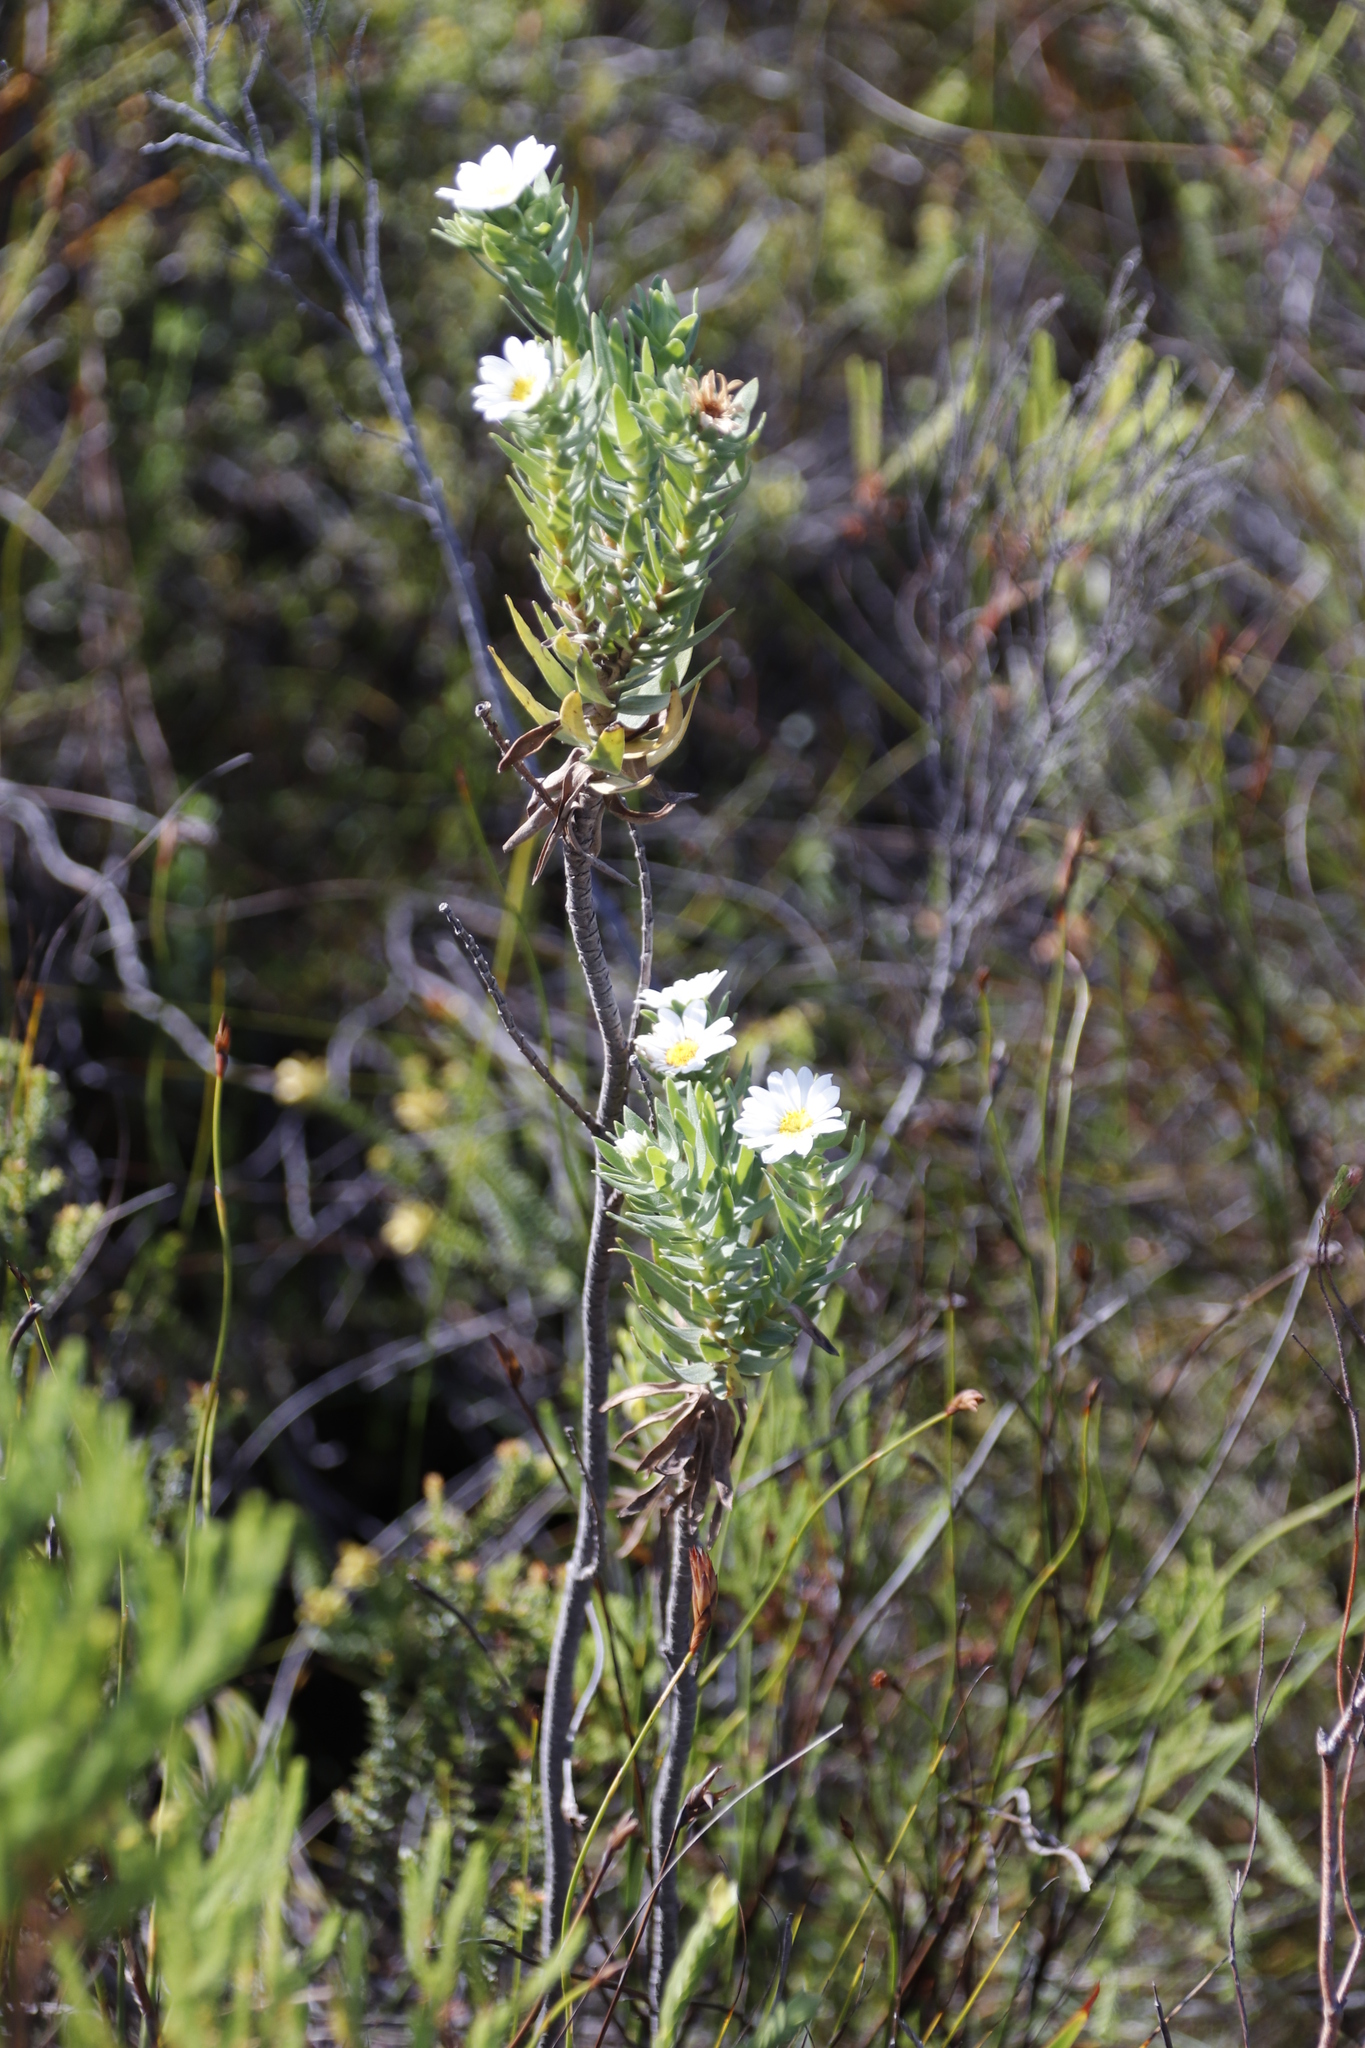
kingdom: Plantae
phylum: Tracheophyta
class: Magnoliopsida
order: Asterales
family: Asteraceae
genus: Osmitopsis
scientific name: Osmitopsis asteriscoides
